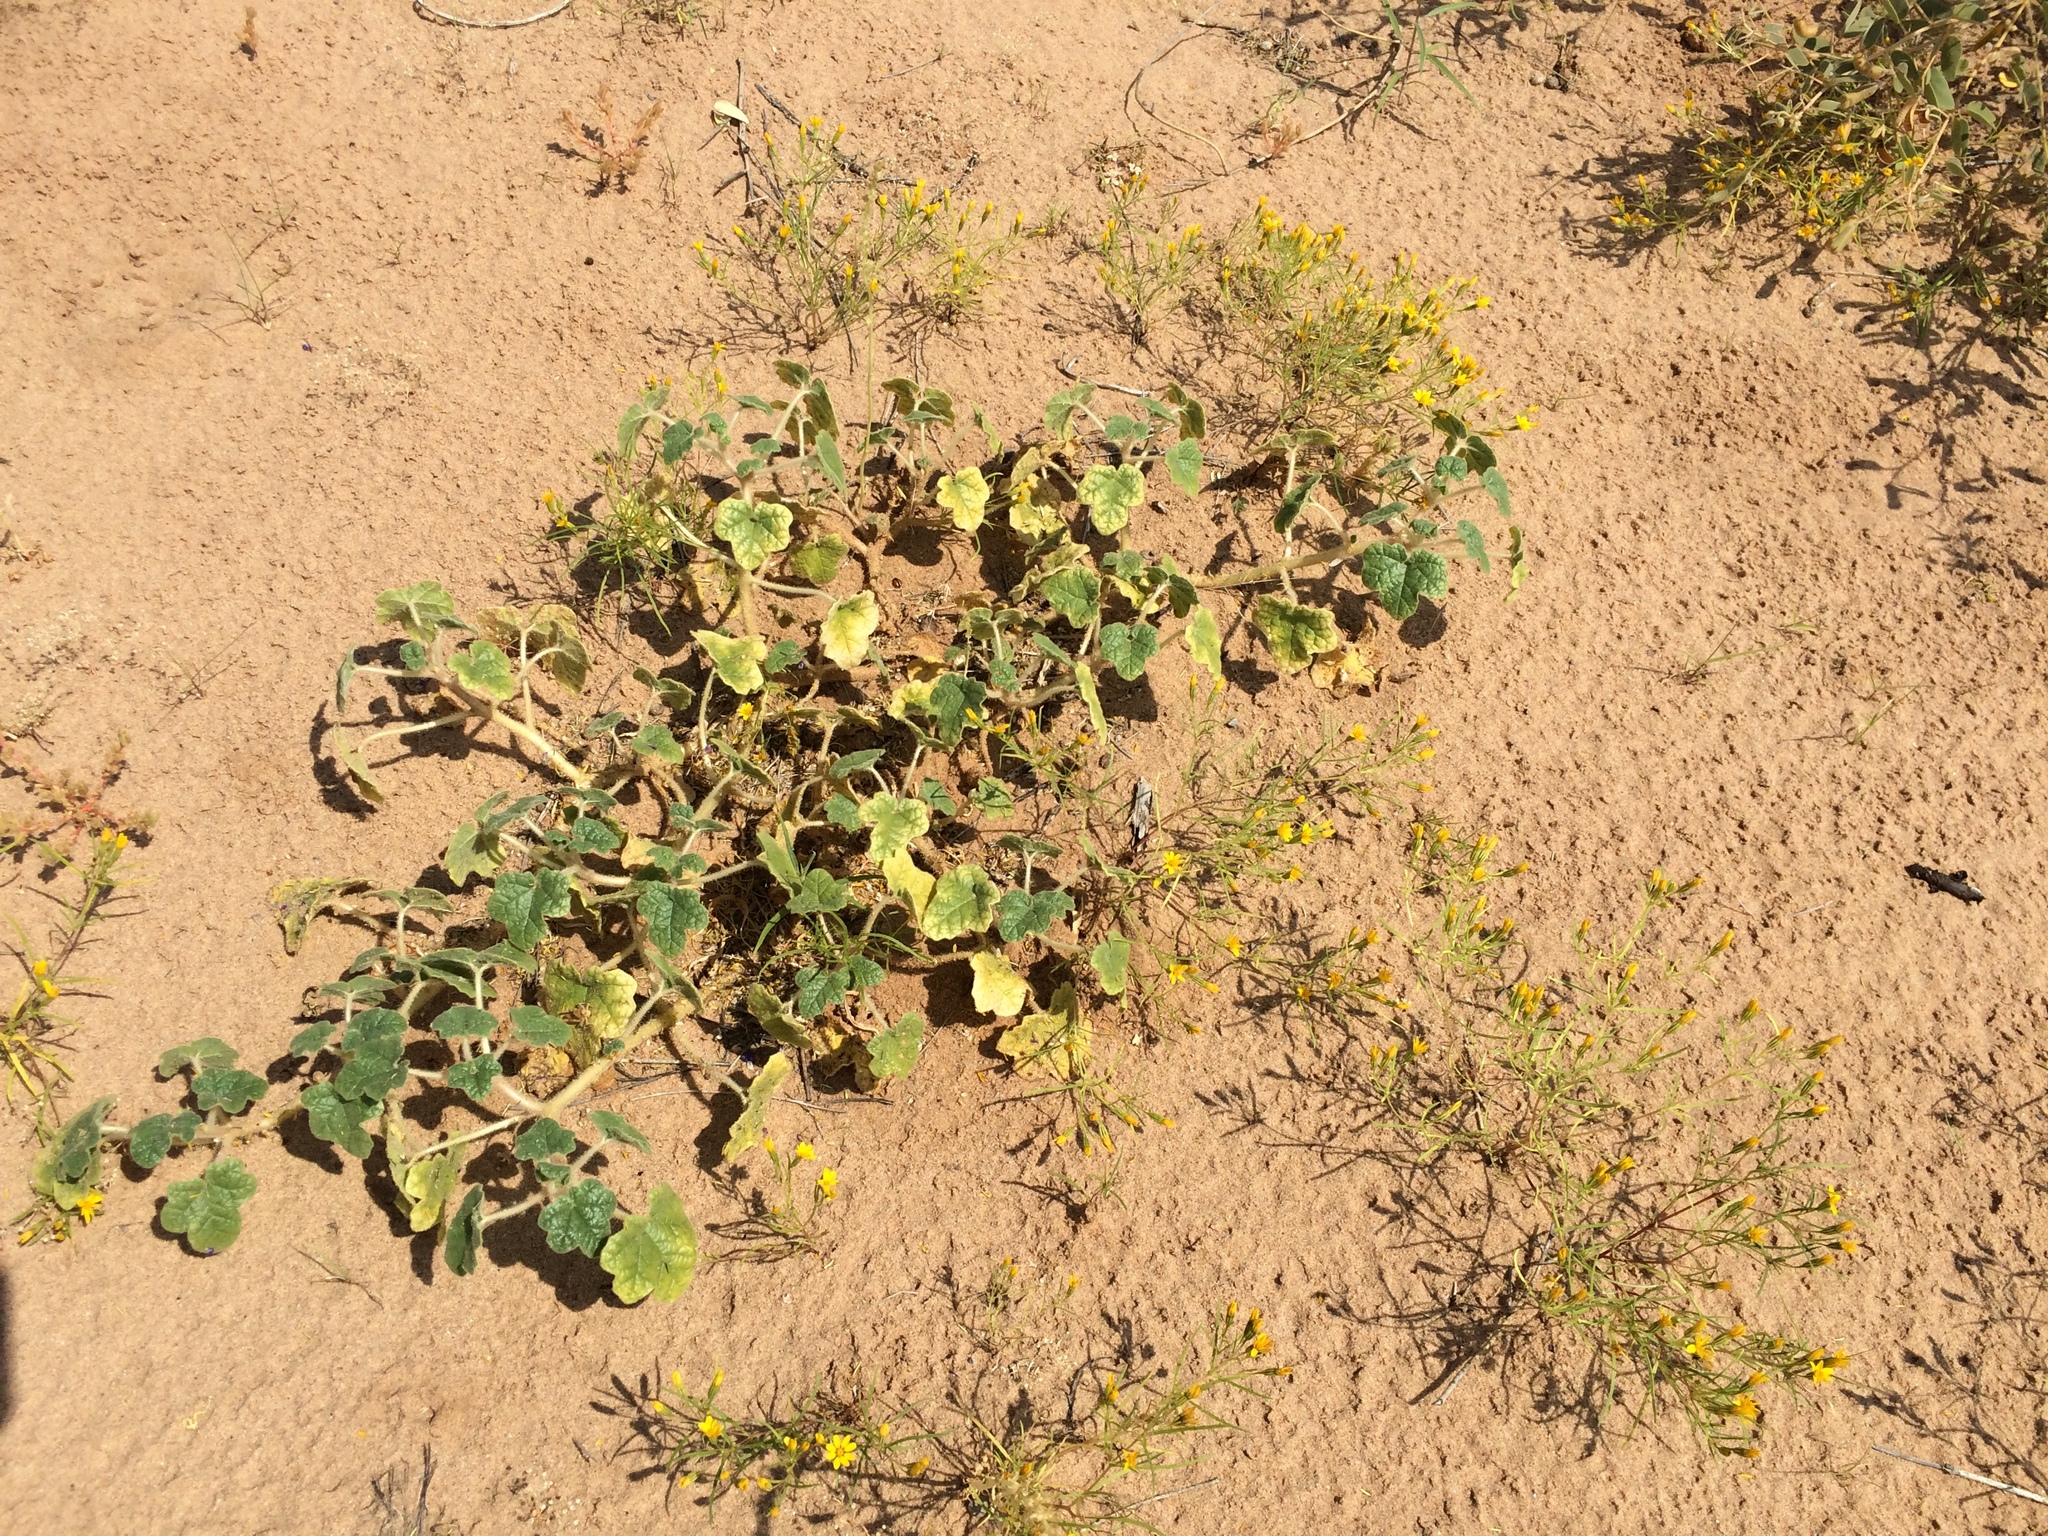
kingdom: Plantae
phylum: Tracheophyta
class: Magnoliopsida
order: Lamiales
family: Martyniaceae
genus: Proboscidea
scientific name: Proboscidea althaeifolia
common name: Desert unicorn-plant
